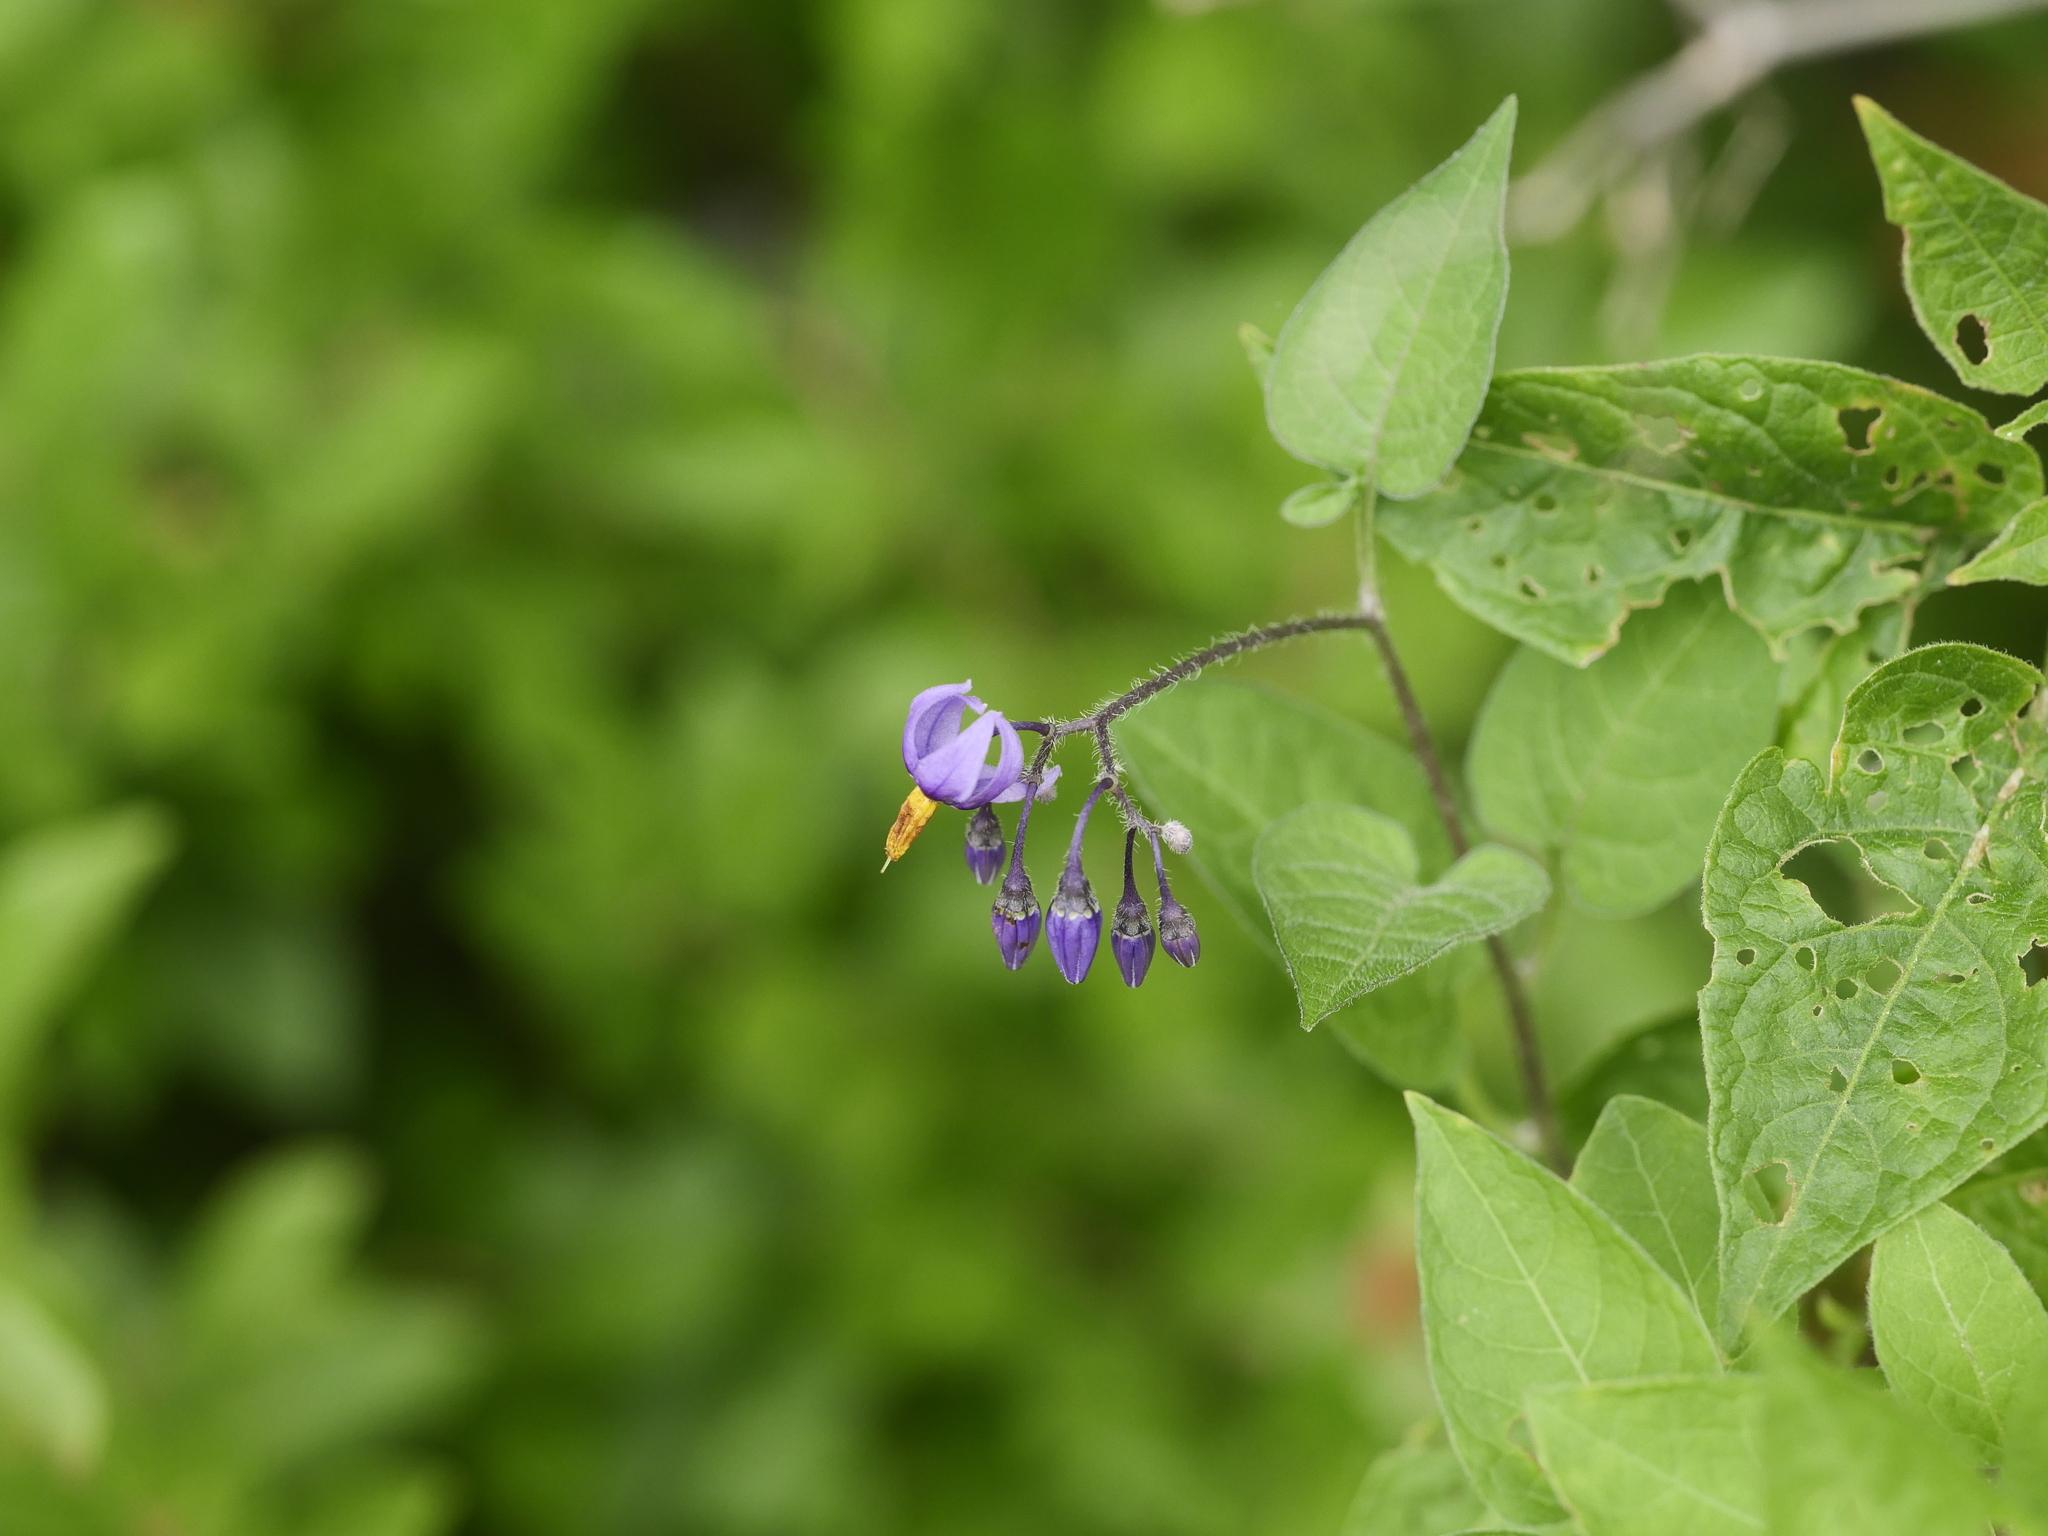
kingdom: Plantae
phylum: Tracheophyta
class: Magnoliopsida
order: Solanales
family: Solanaceae
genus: Solanum
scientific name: Solanum dulcamara
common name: Climbing nightshade
